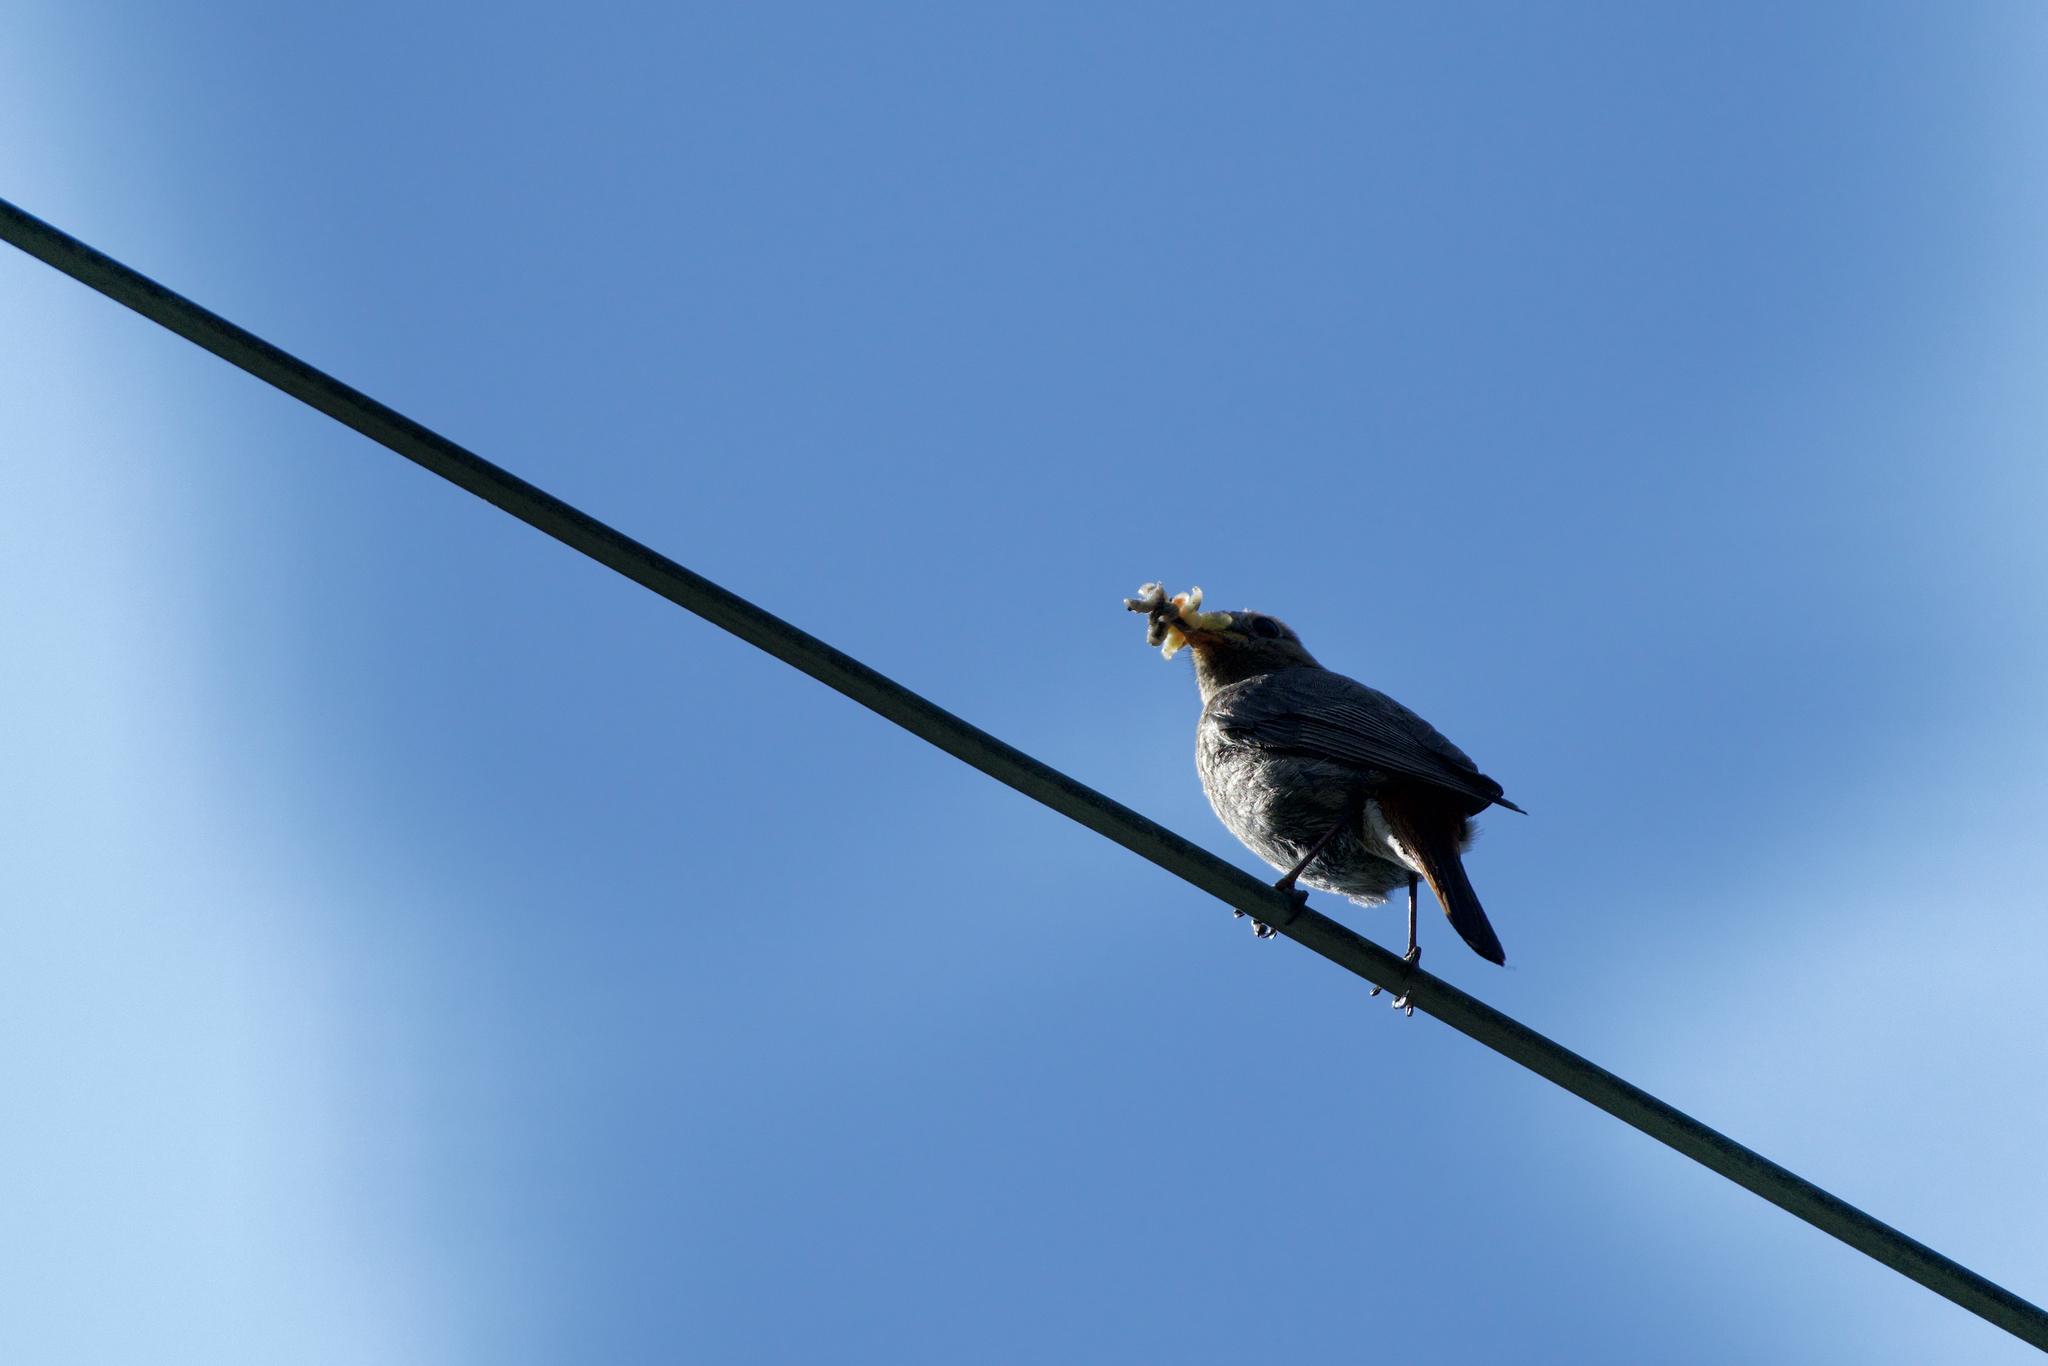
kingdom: Animalia
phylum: Chordata
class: Aves
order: Passeriformes
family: Muscicapidae
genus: Phoenicurus
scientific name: Phoenicurus ochruros
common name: Black redstart
